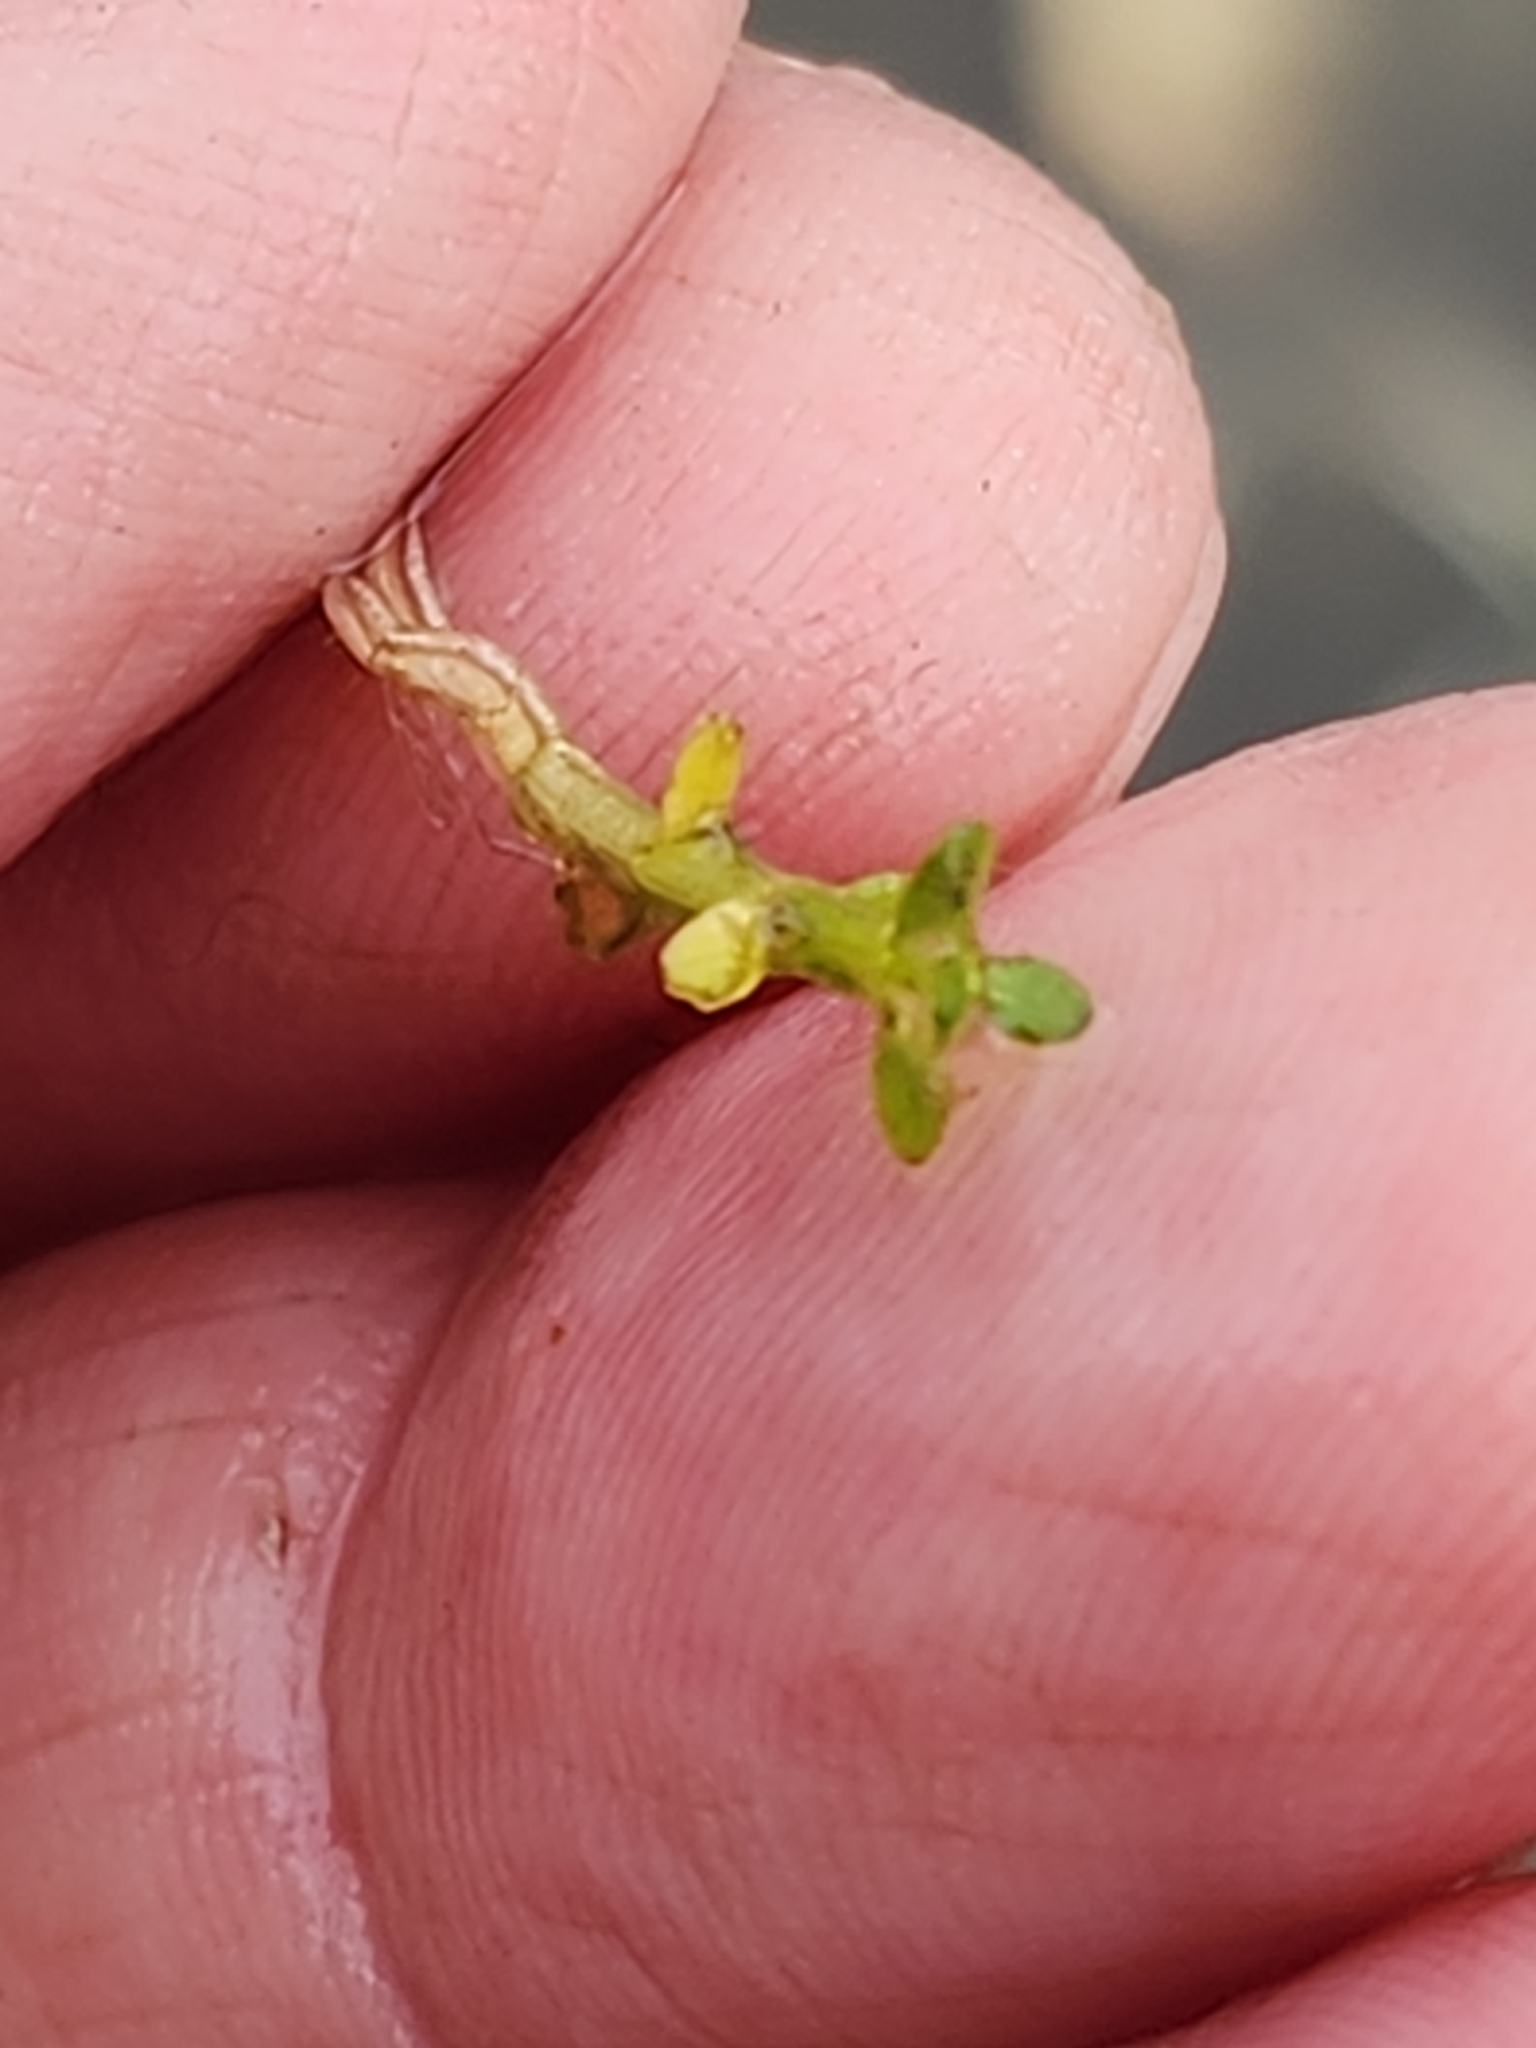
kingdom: Plantae
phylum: Tracheophyta
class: Magnoliopsida
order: Malpighiales
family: Elatinaceae
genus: Elatine
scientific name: Elatine minima
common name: Small waterwort
